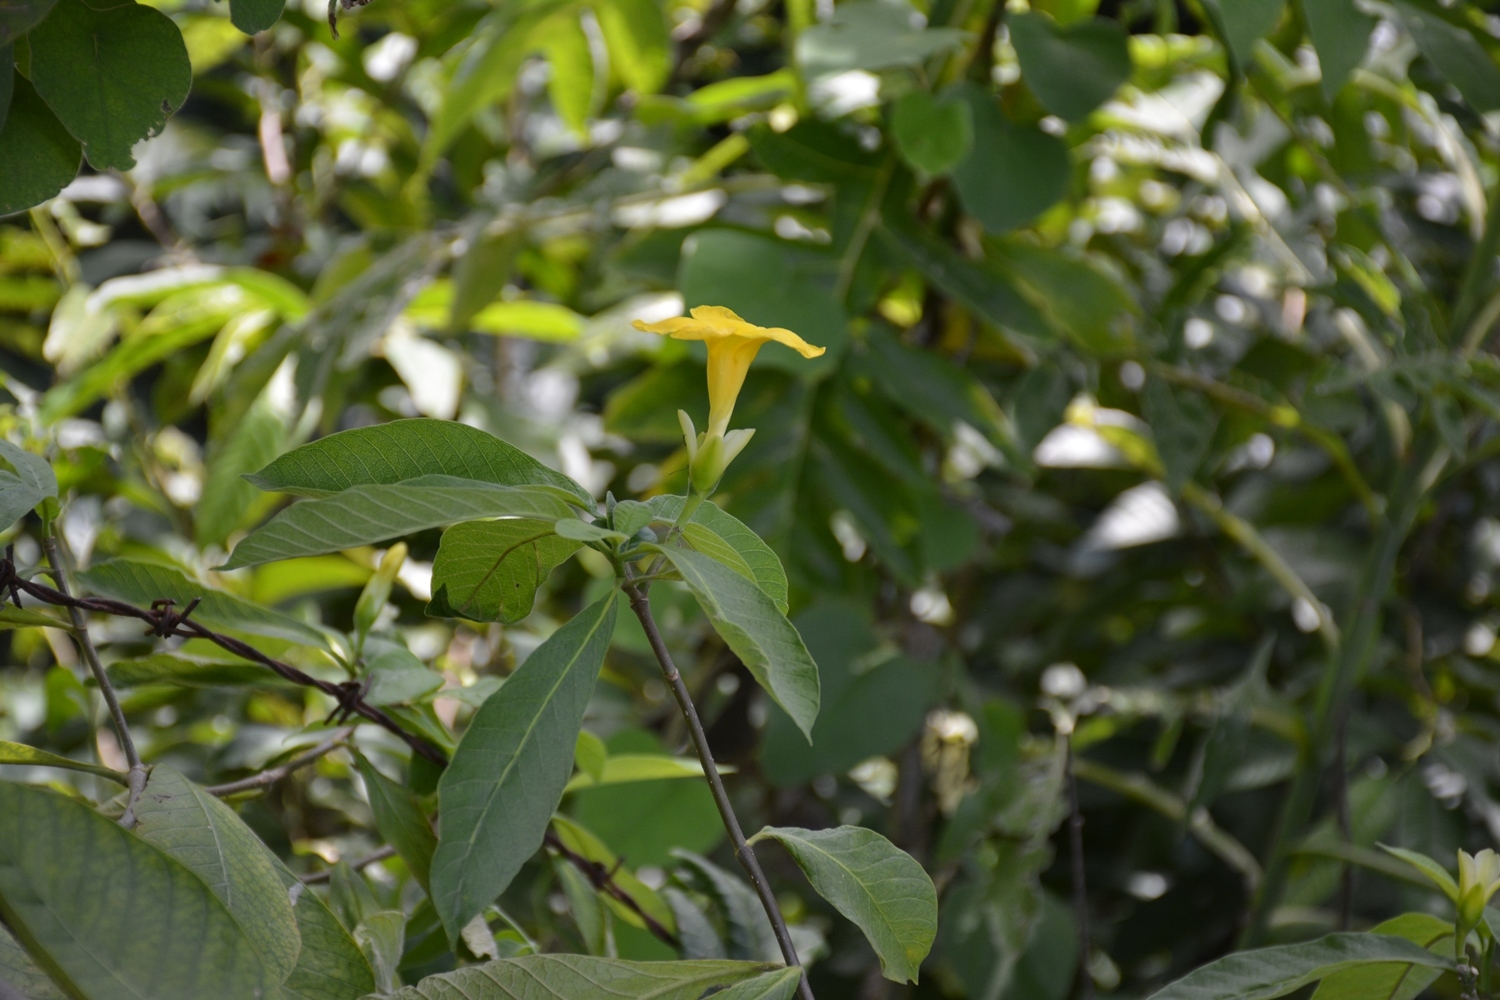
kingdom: Plantae
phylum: Tracheophyta
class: Magnoliopsida
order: Gentianales
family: Apocynaceae
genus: Tabernaemontana
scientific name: Tabernaemontana glabra
